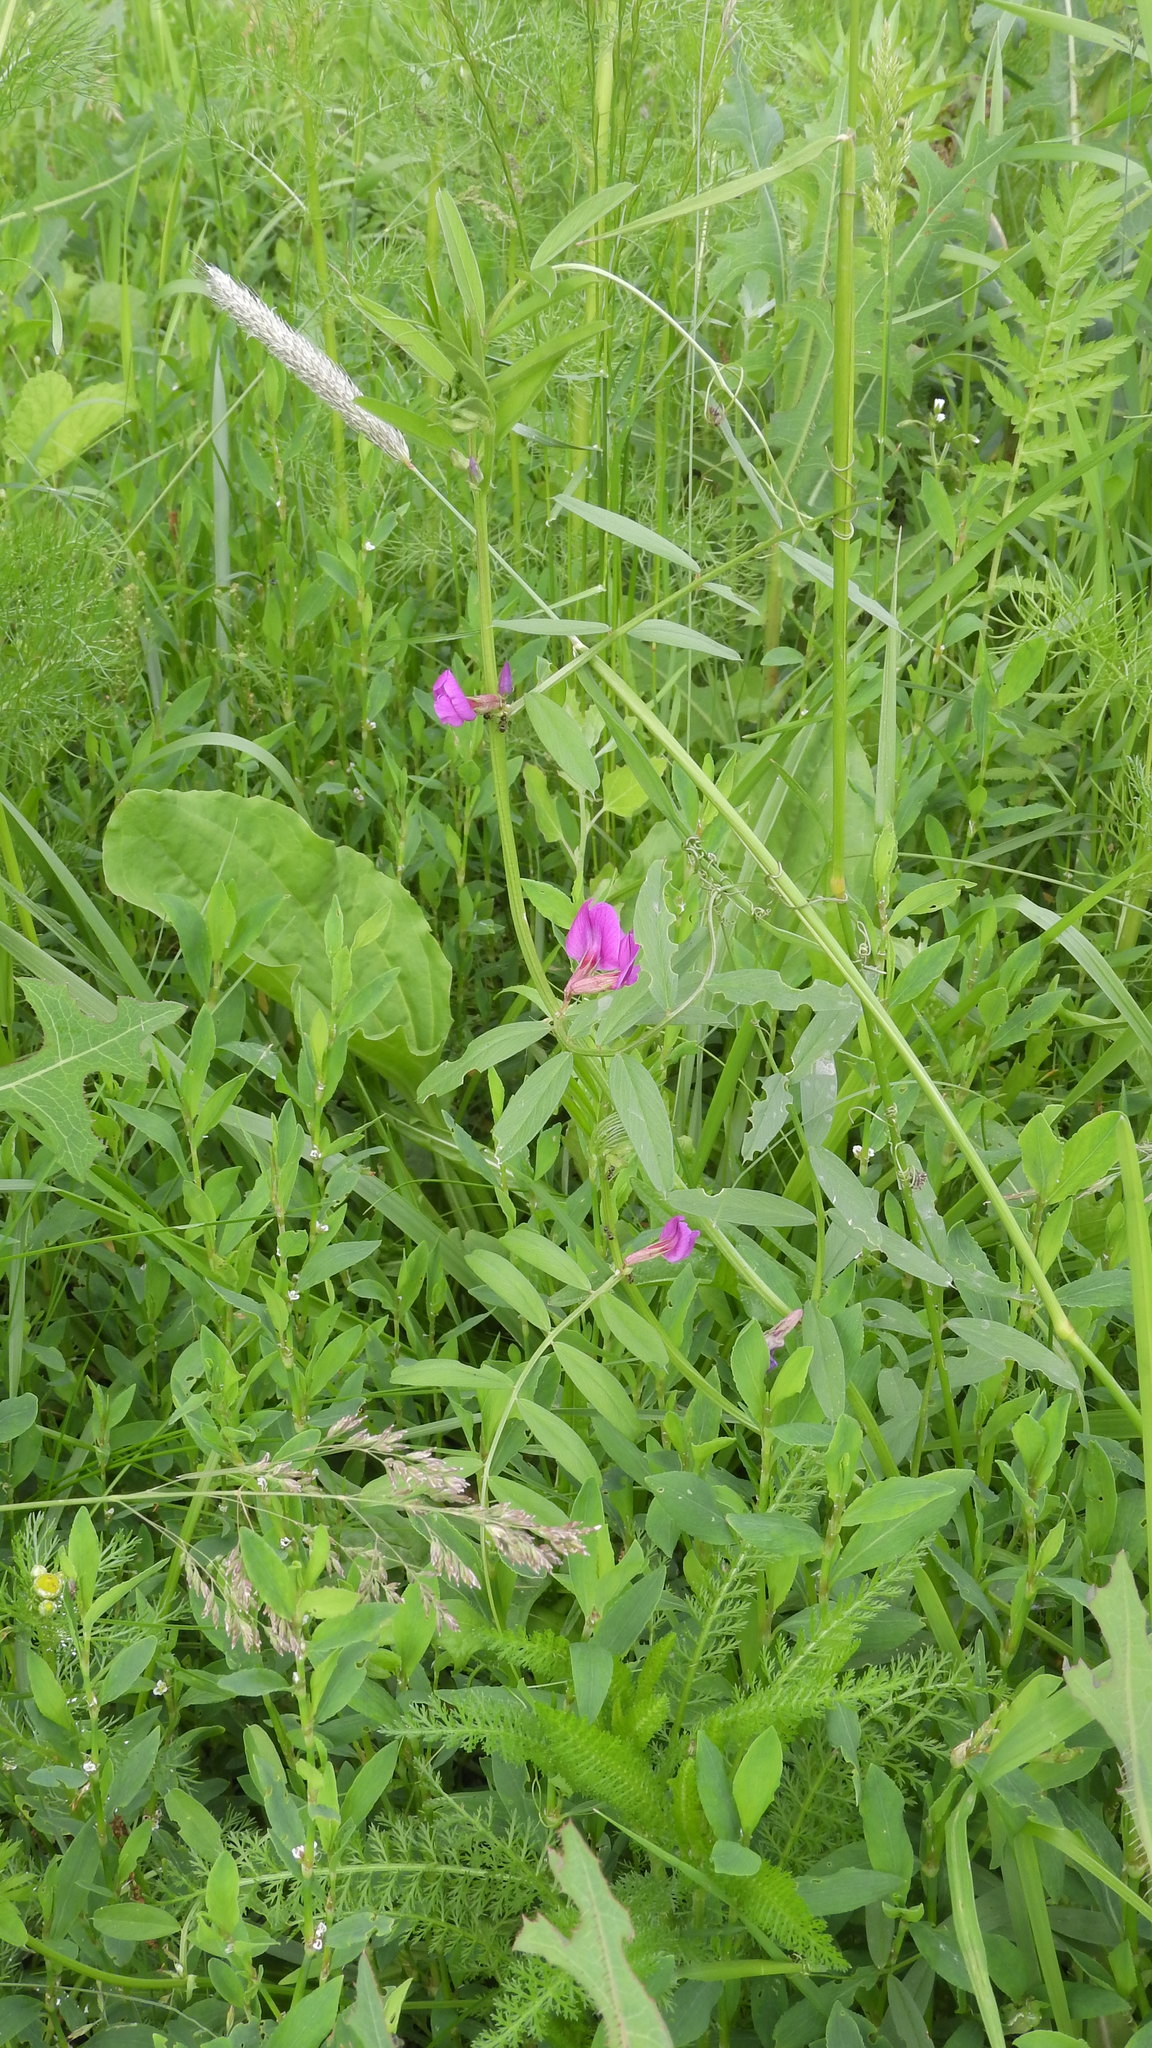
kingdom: Plantae
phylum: Tracheophyta
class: Magnoliopsida
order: Fabales
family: Fabaceae
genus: Vicia
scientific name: Vicia sativa
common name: Garden vetch
